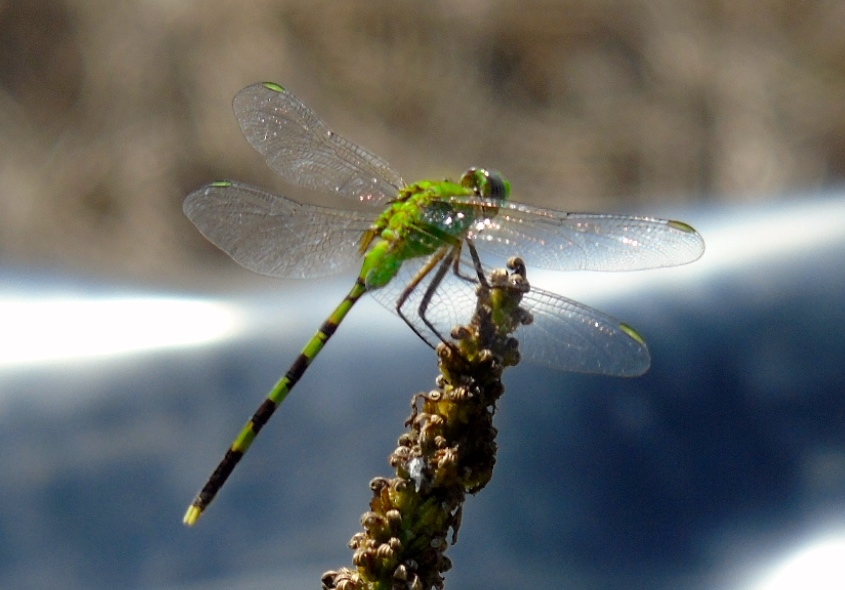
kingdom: Animalia
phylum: Arthropoda
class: Insecta
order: Odonata
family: Libellulidae
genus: Erythemis
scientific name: Erythemis vesiculosa
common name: Great pondhawk
